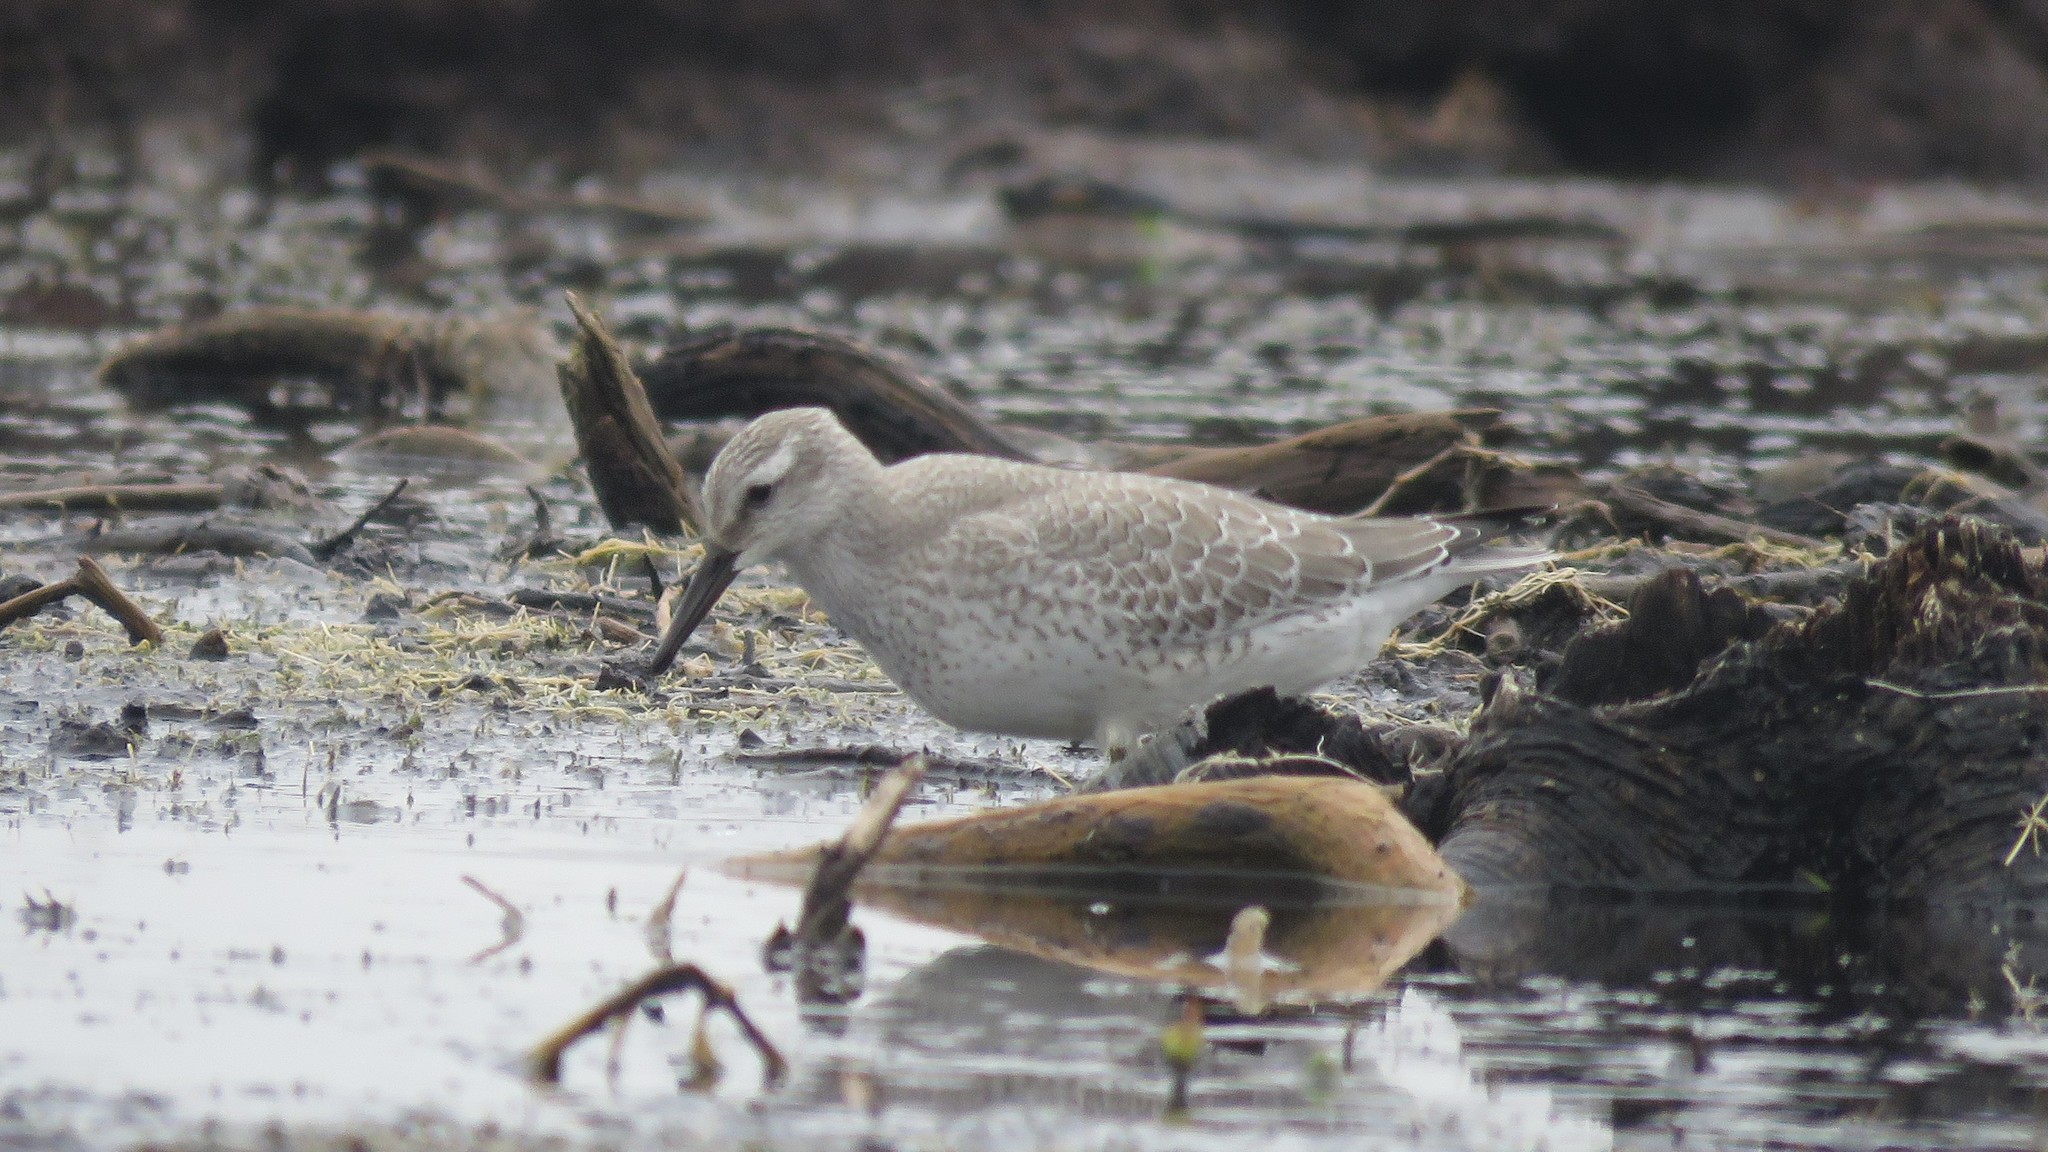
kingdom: Animalia
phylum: Chordata
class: Aves
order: Charadriiformes
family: Scolopacidae
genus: Calidris
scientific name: Calidris canutus
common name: Red knot
